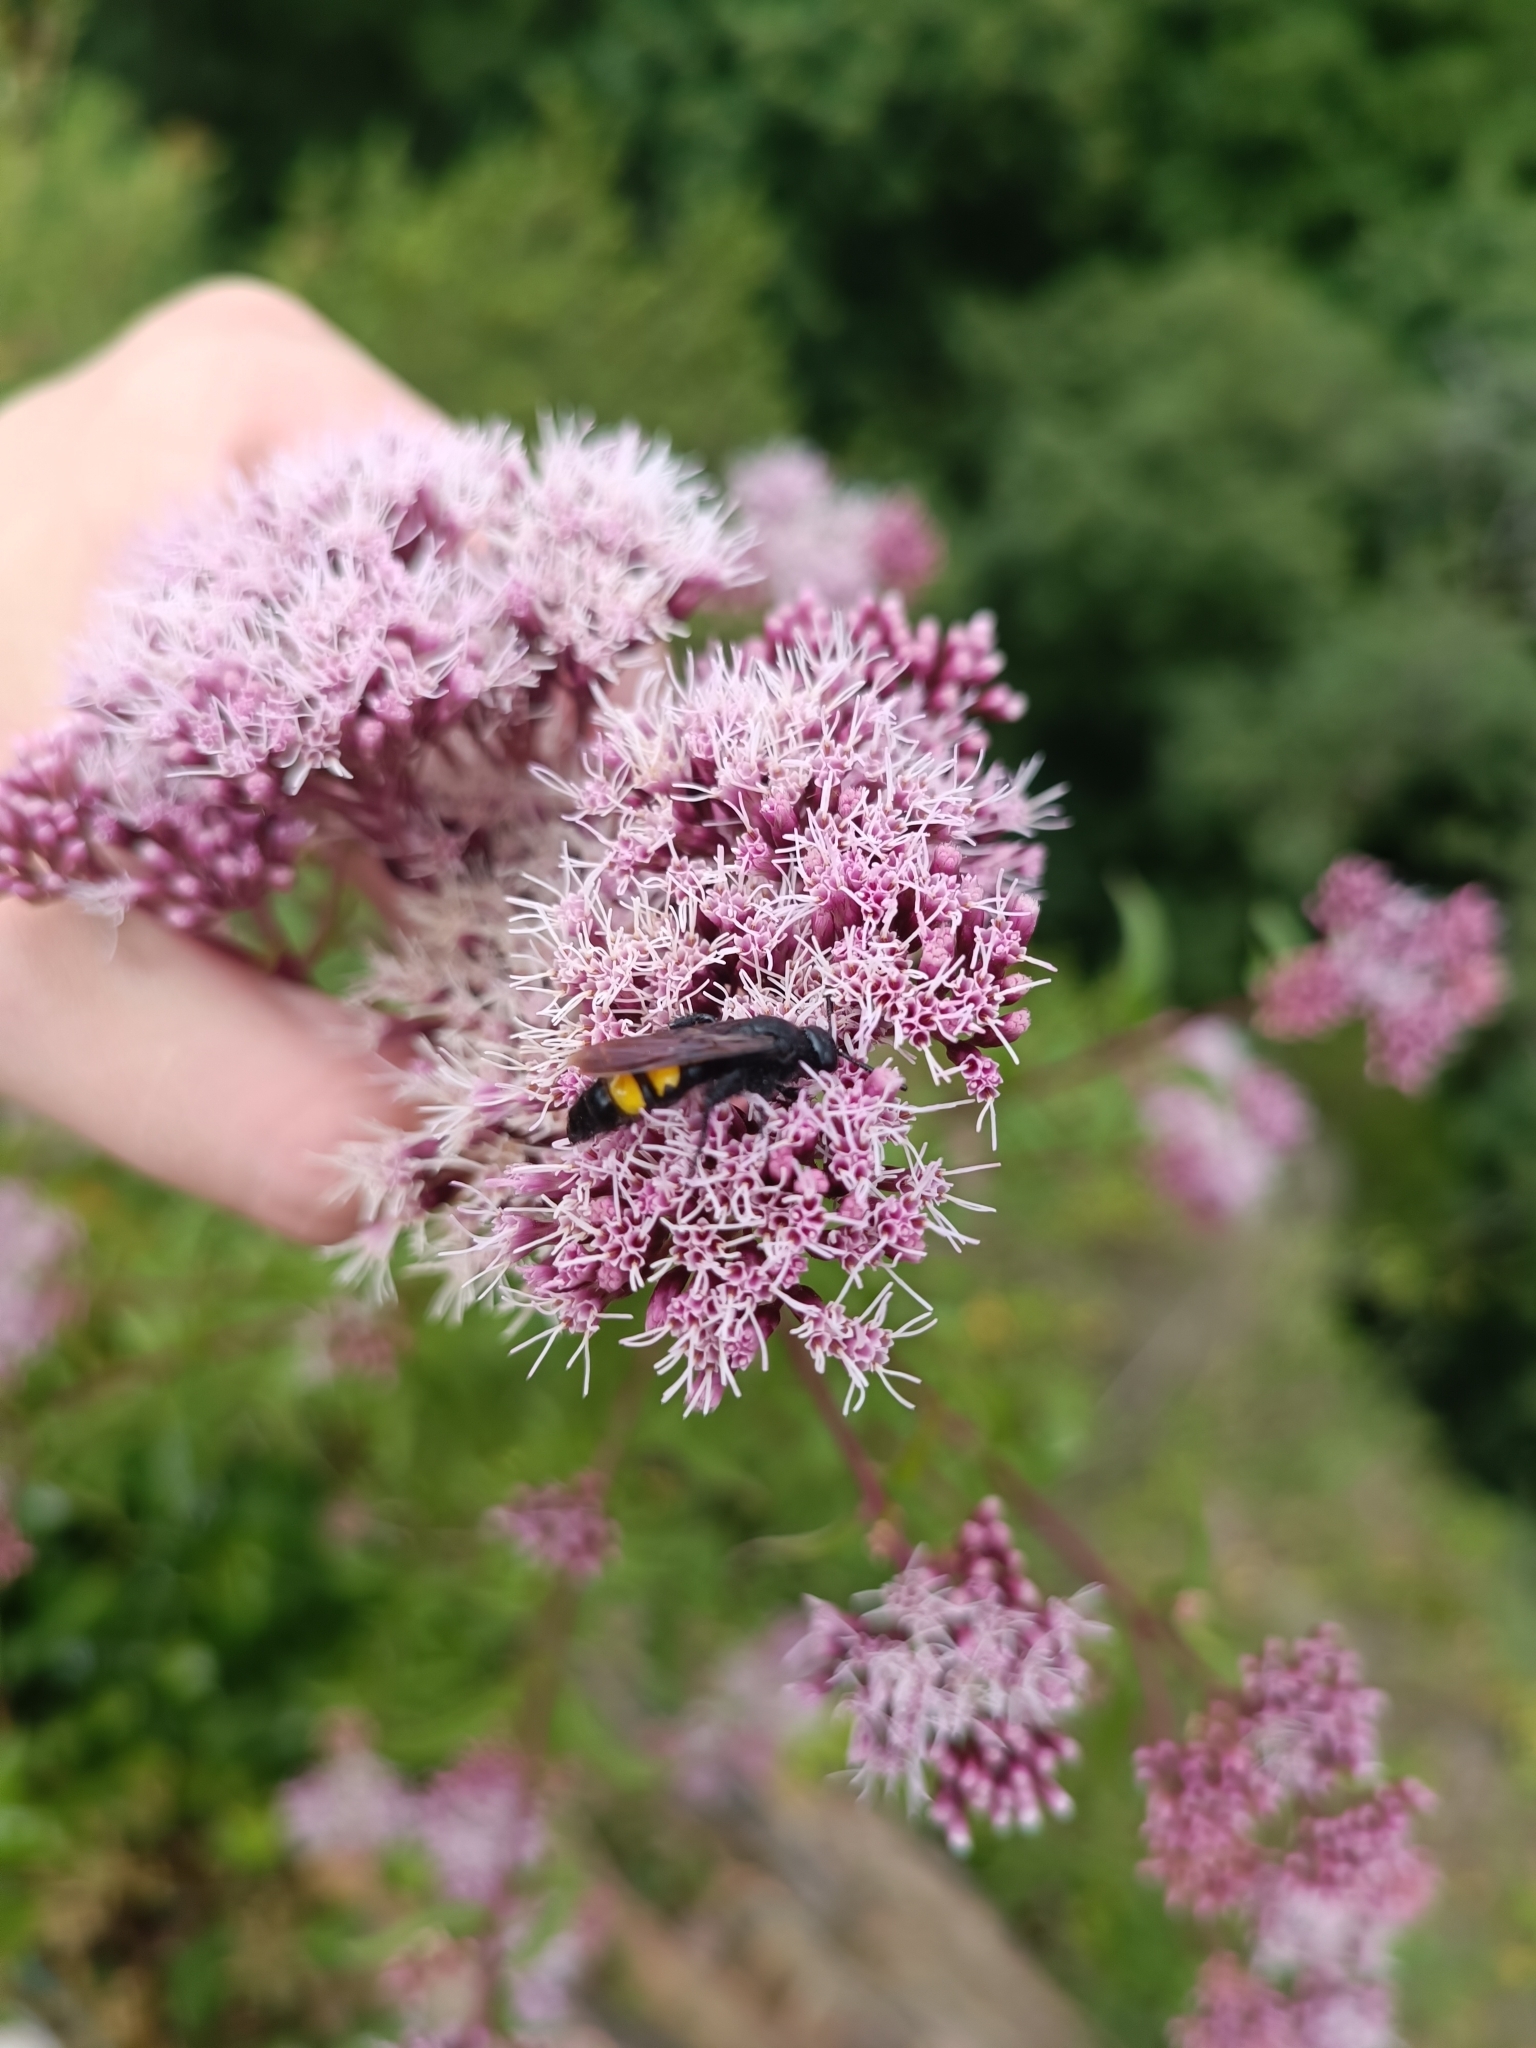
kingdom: Animalia
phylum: Arthropoda
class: Insecta
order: Hymenoptera
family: Scoliidae
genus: Scolia
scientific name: Scolia hirta
